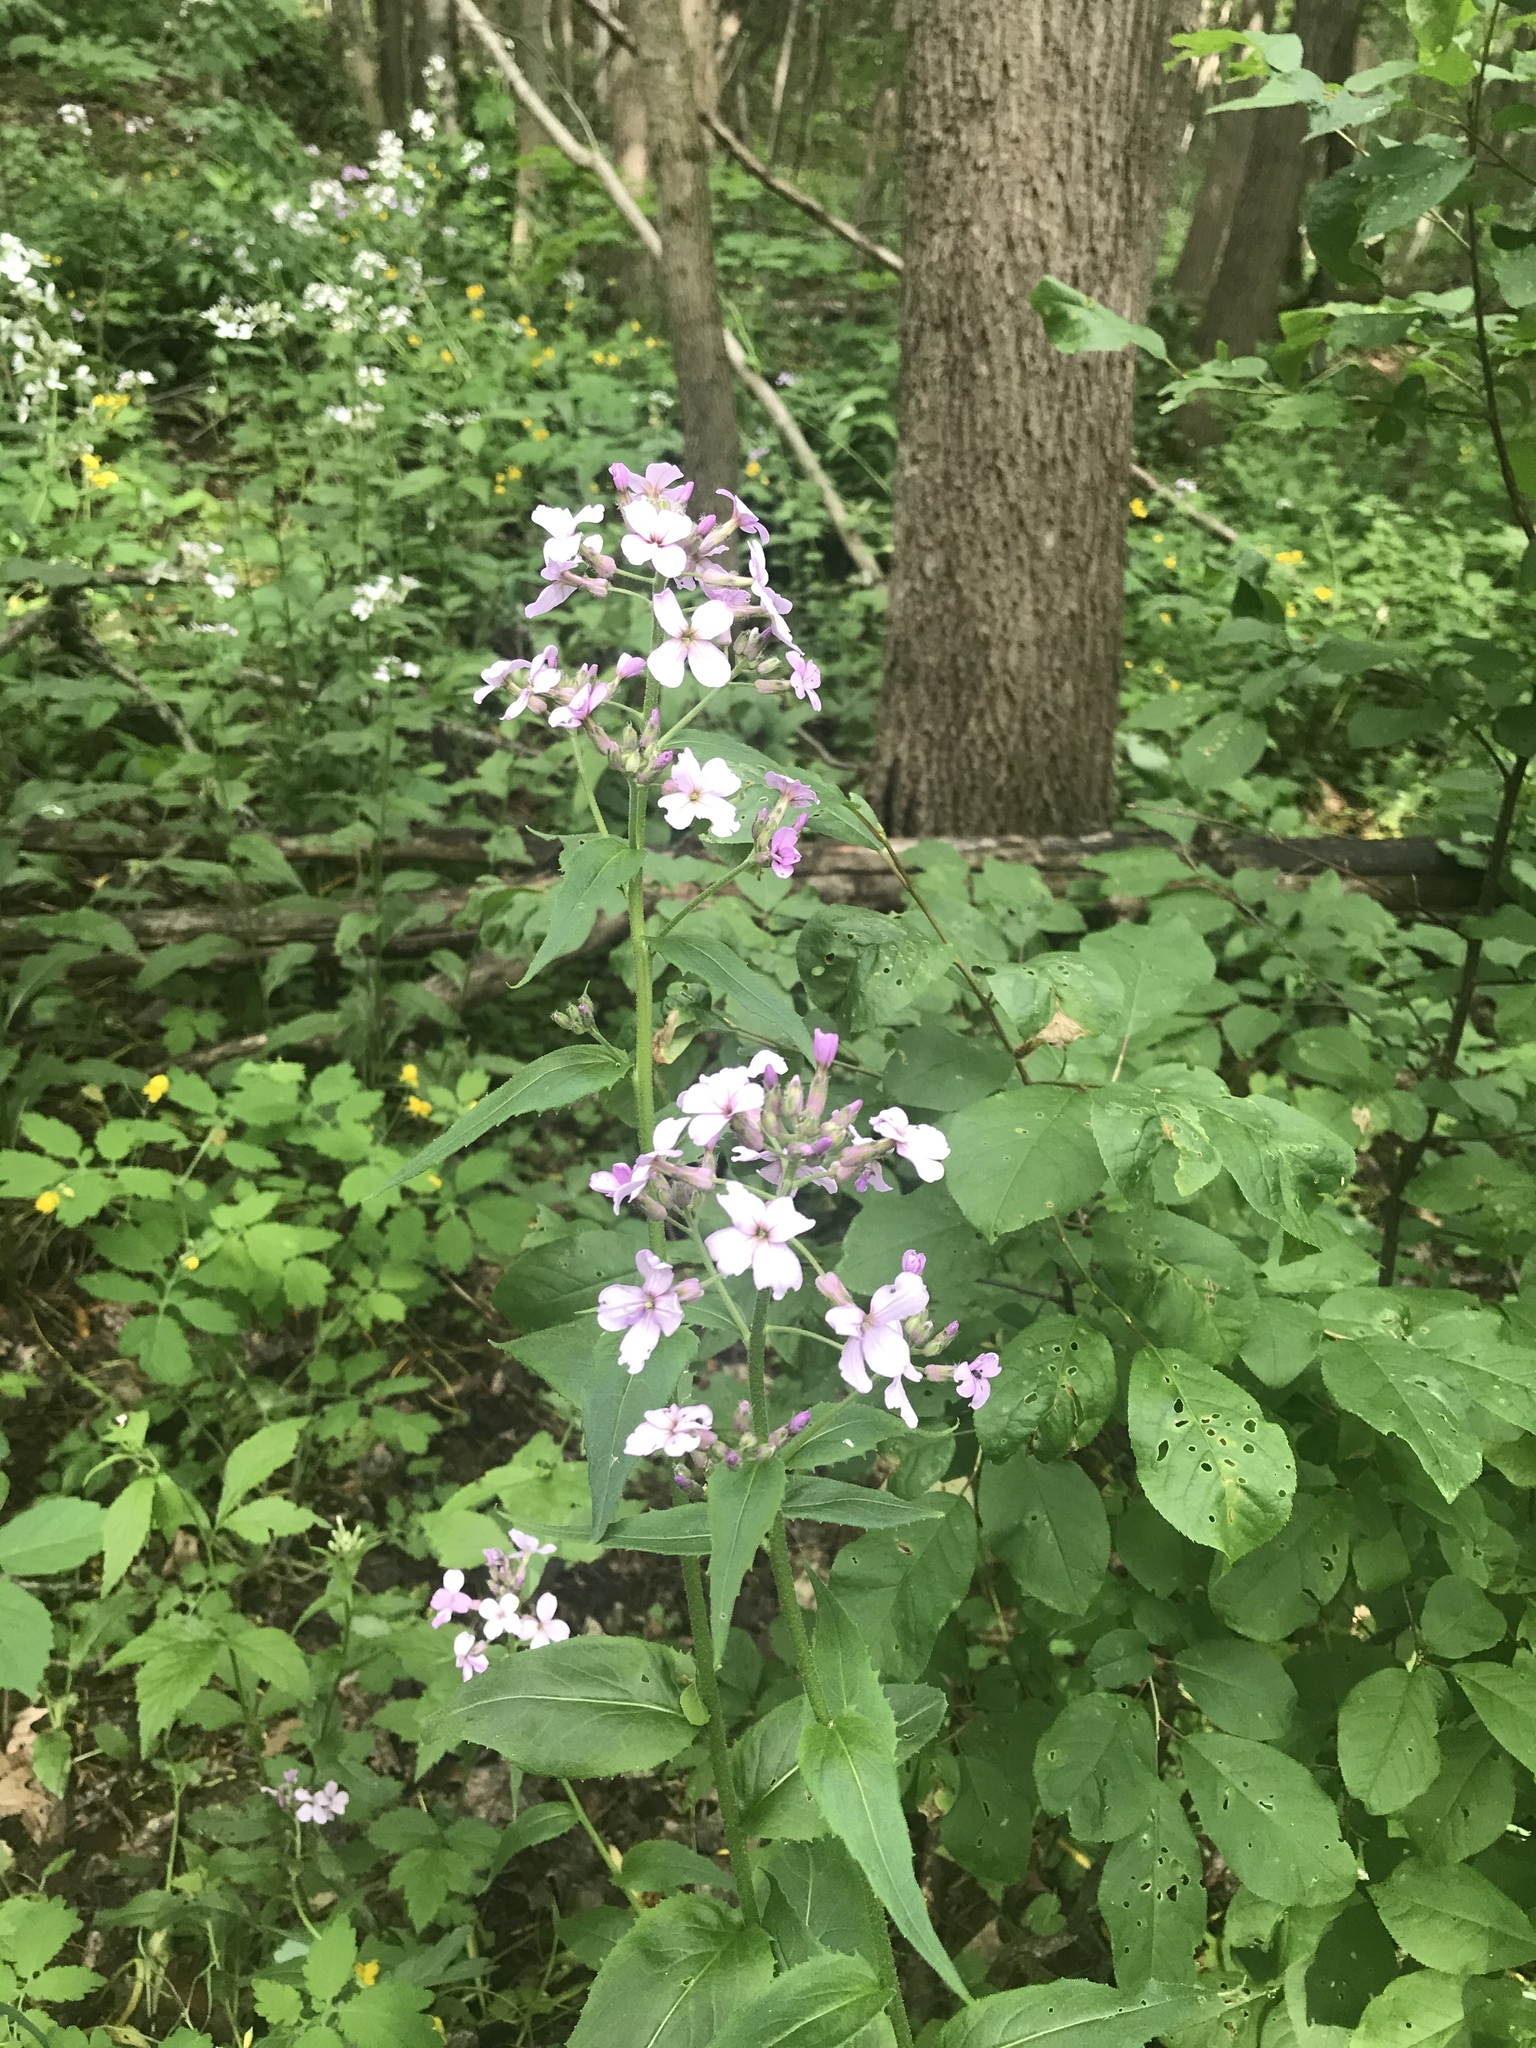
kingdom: Plantae
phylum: Tracheophyta
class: Magnoliopsida
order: Brassicales
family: Brassicaceae
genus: Hesperis
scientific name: Hesperis matronalis
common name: Dame's-violet
